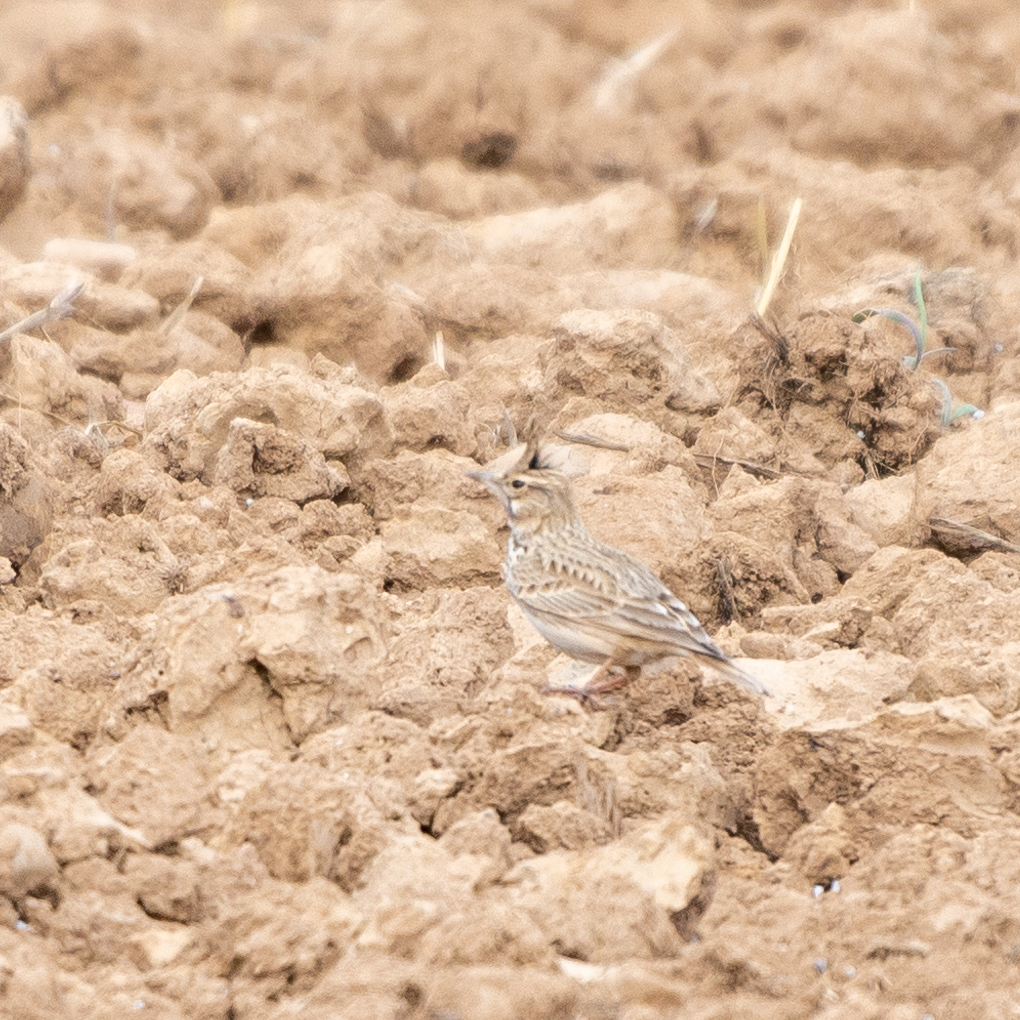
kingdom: Animalia
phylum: Chordata
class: Aves
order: Passeriformes
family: Alaudidae
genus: Galerida
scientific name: Galerida cristata
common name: Crested lark
